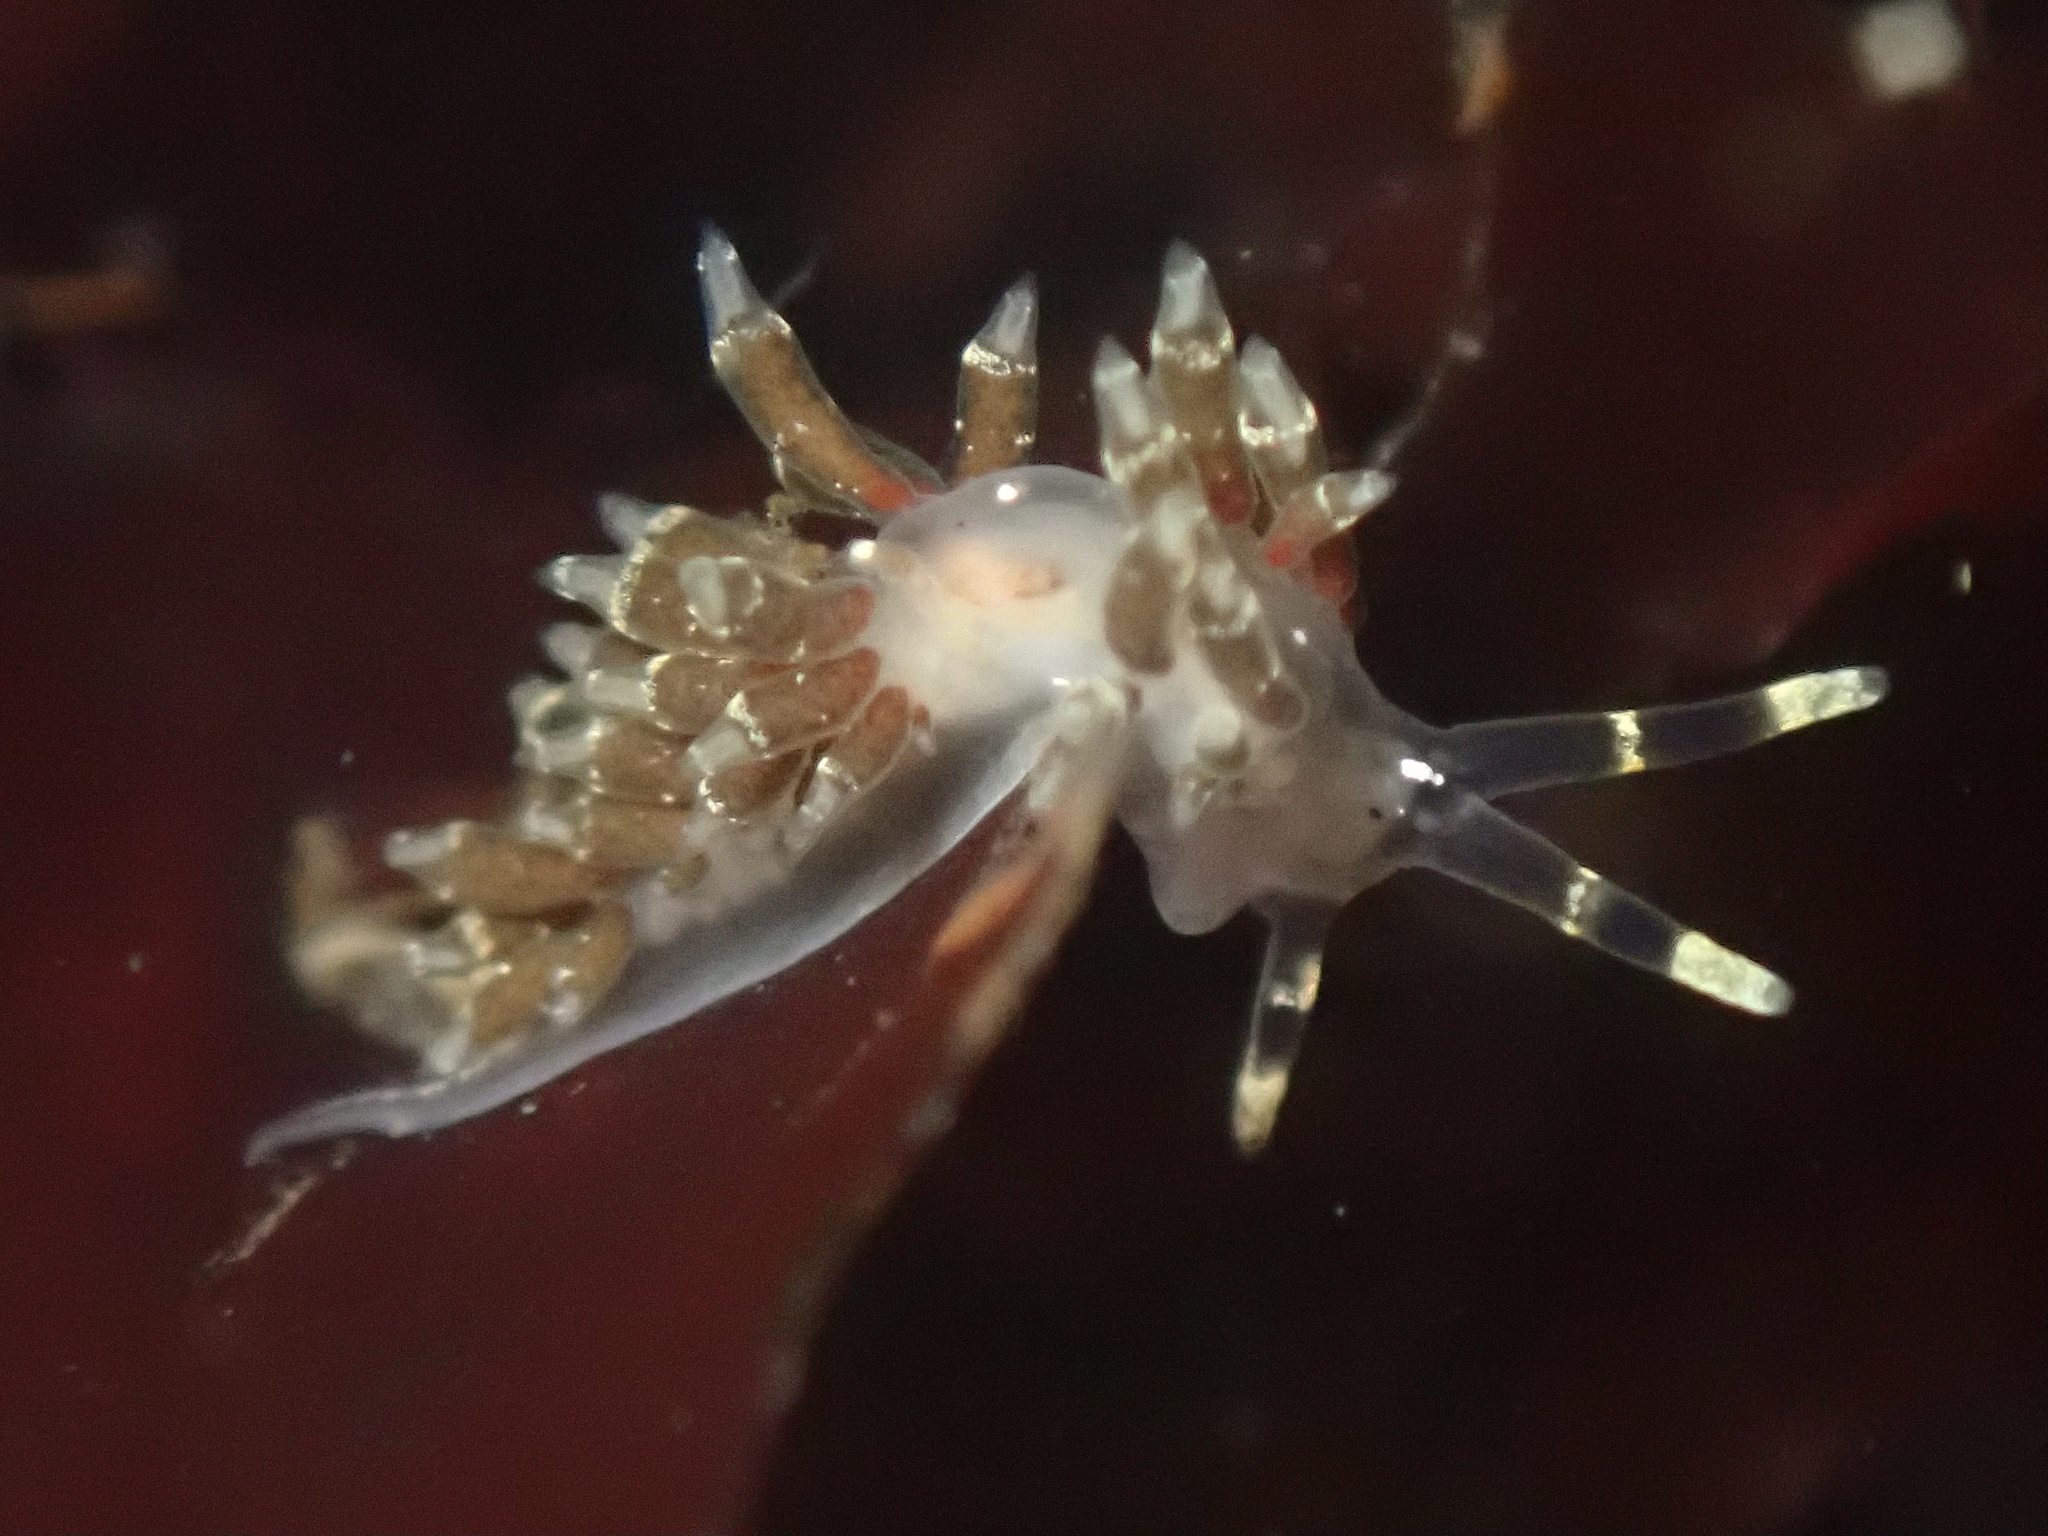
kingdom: Animalia
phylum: Mollusca
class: Gastropoda
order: Nudibranchia
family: Abronicidae
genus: Abronica
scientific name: Abronica abronia
